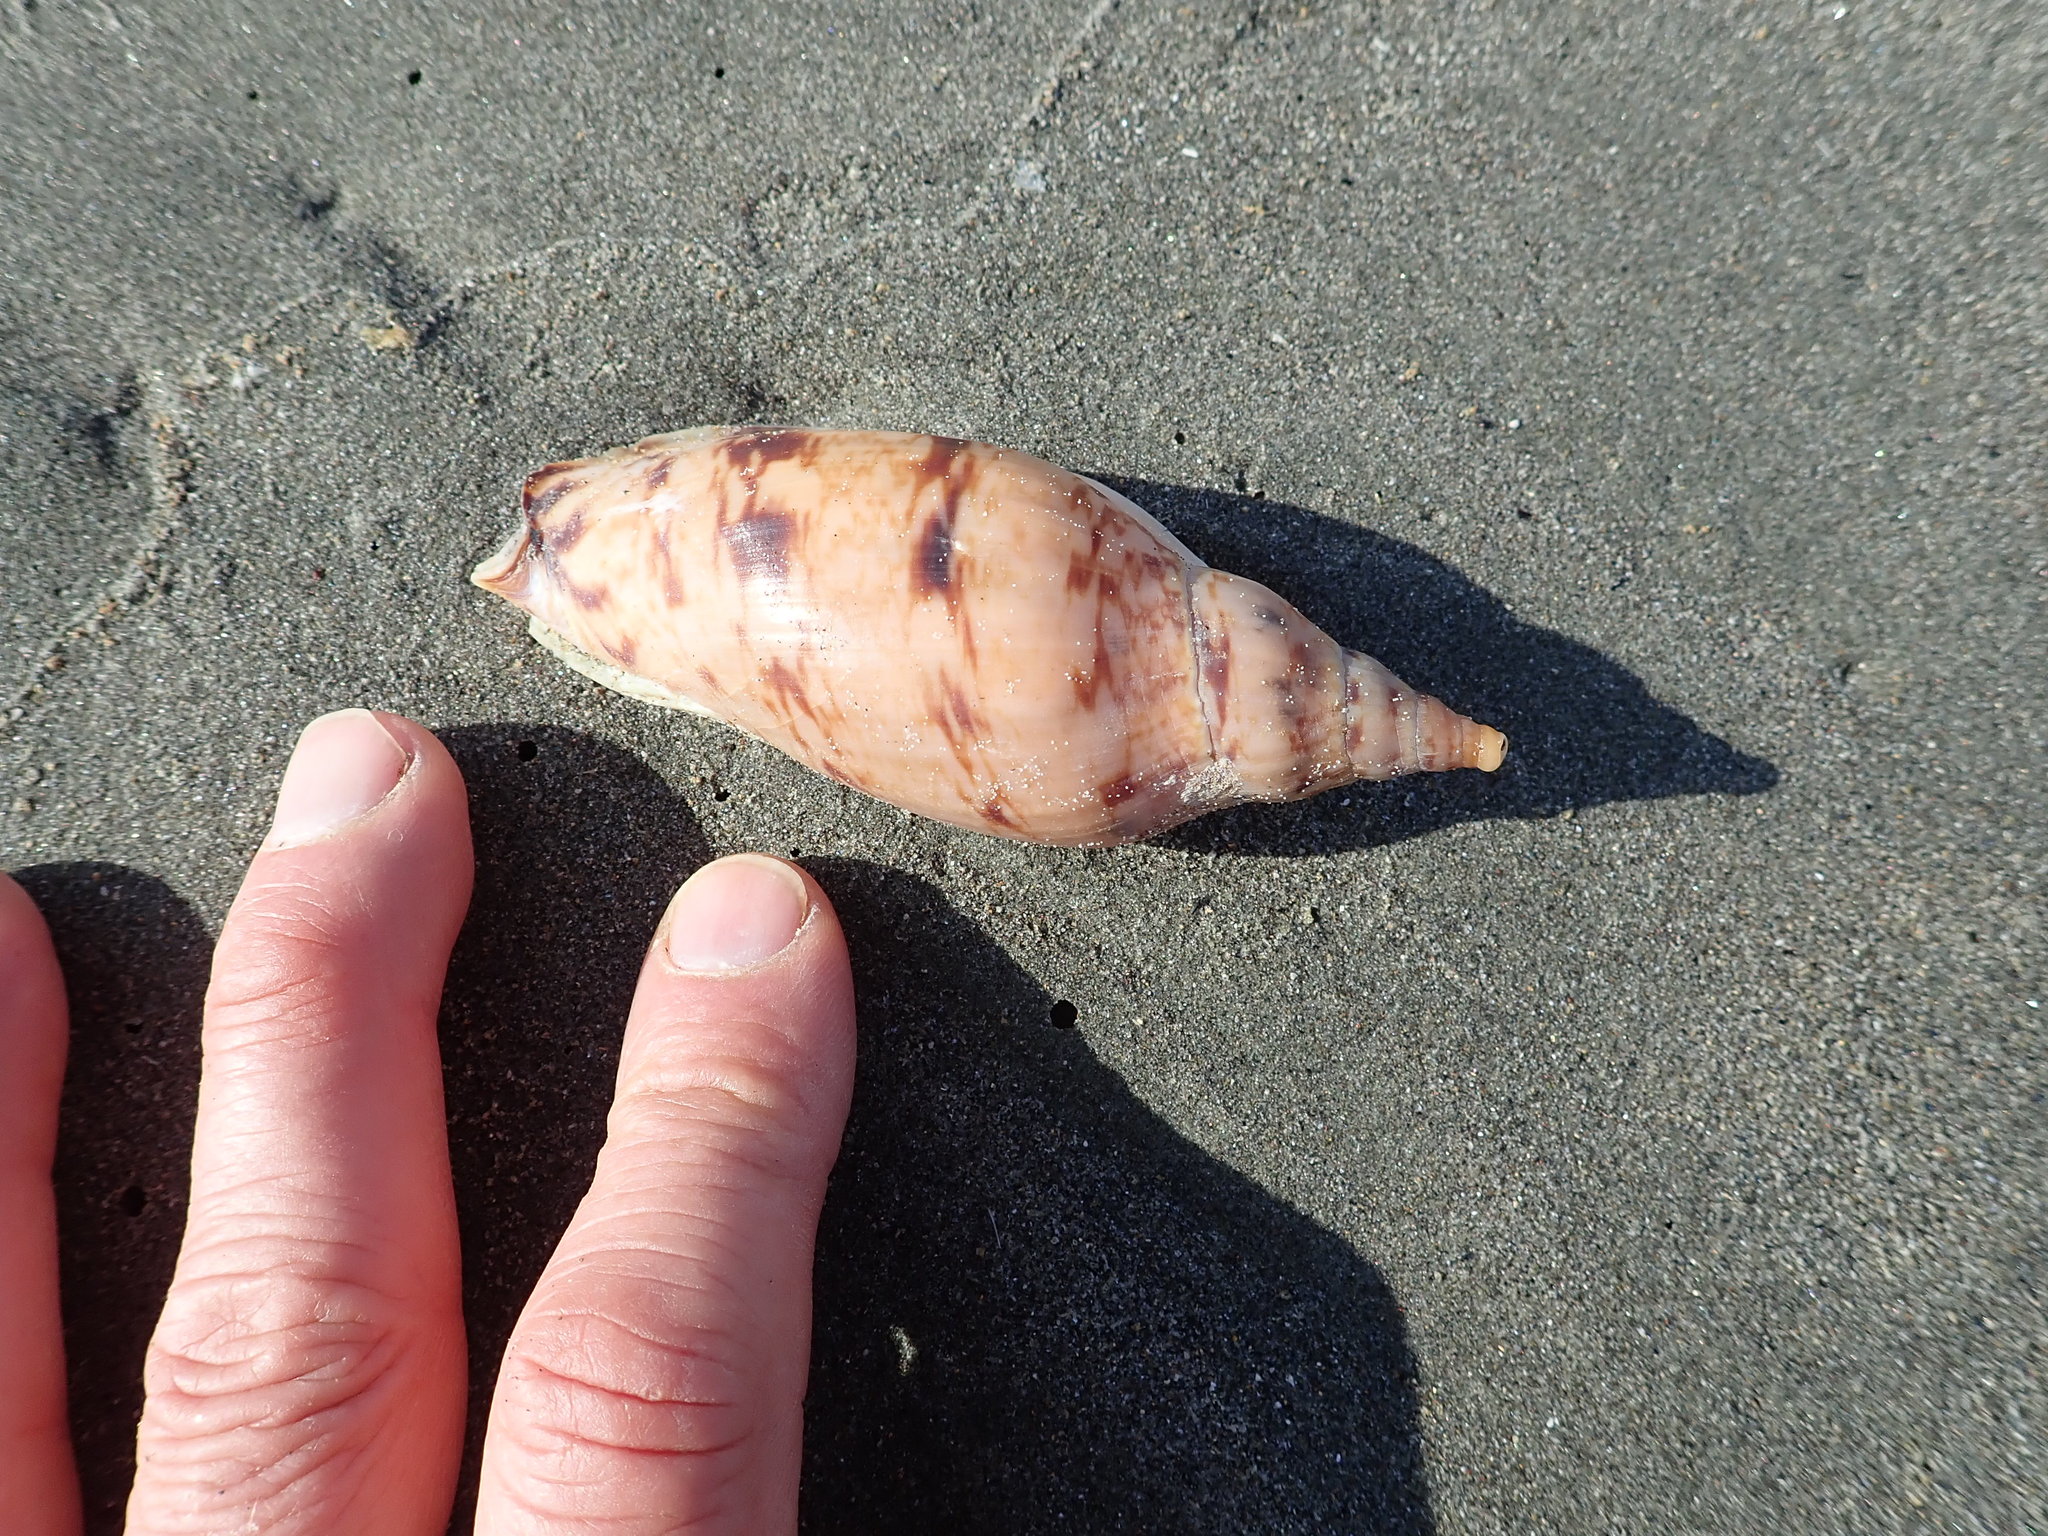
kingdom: Animalia
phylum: Mollusca
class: Gastropoda
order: Neogastropoda
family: Volutidae
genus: Alcithoe
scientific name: Alcithoe arabica
